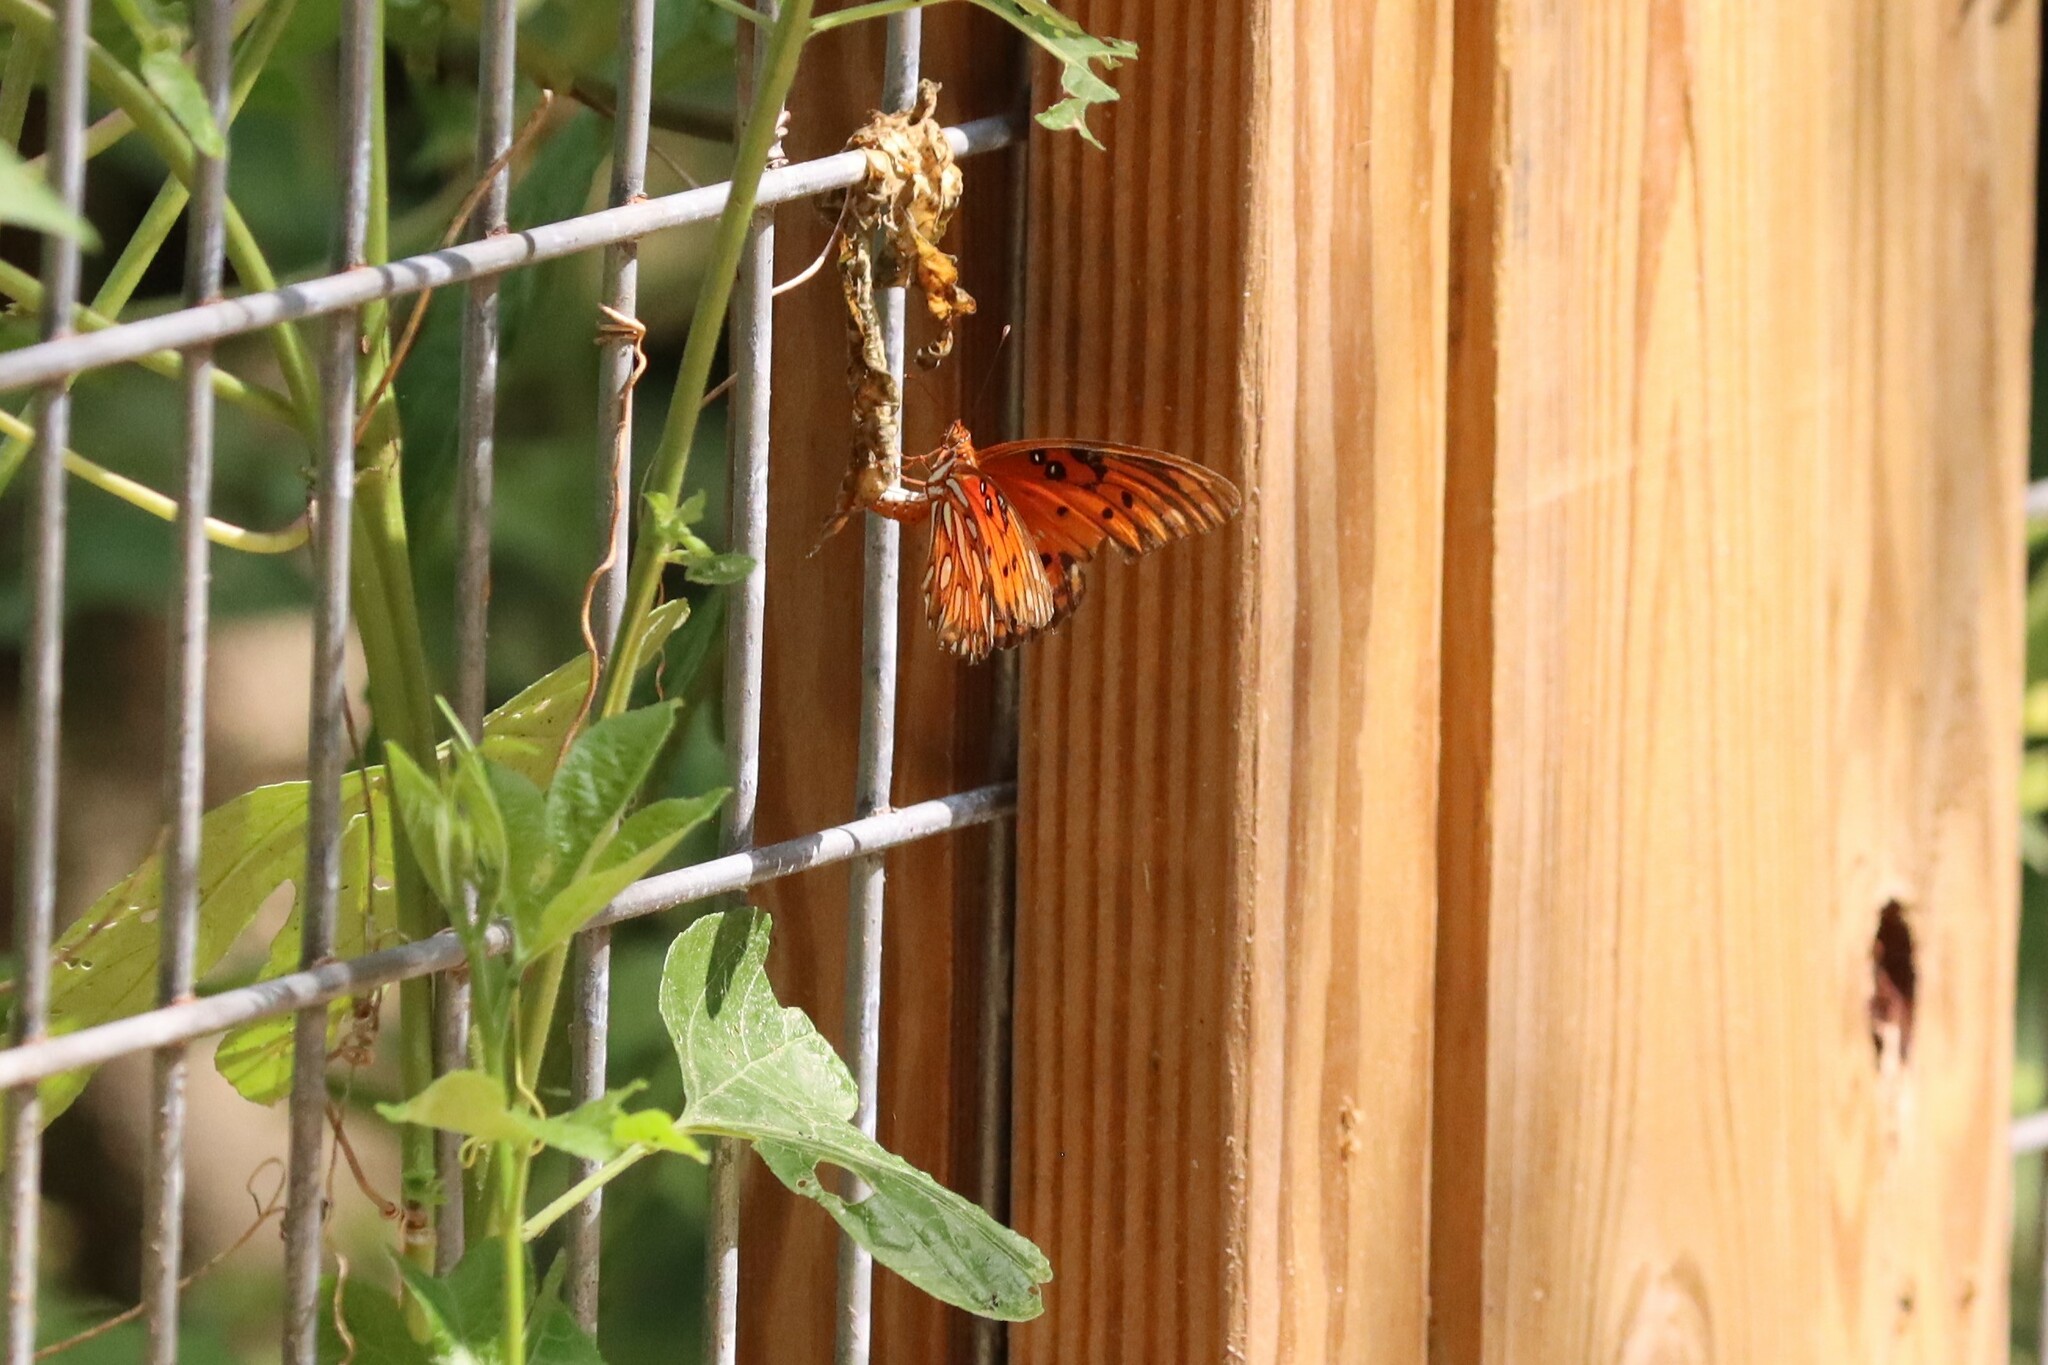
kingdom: Animalia
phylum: Arthropoda
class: Insecta
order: Lepidoptera
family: Nymphalidae
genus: Dione
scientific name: Dione vanillae
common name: Gulf fritillary
